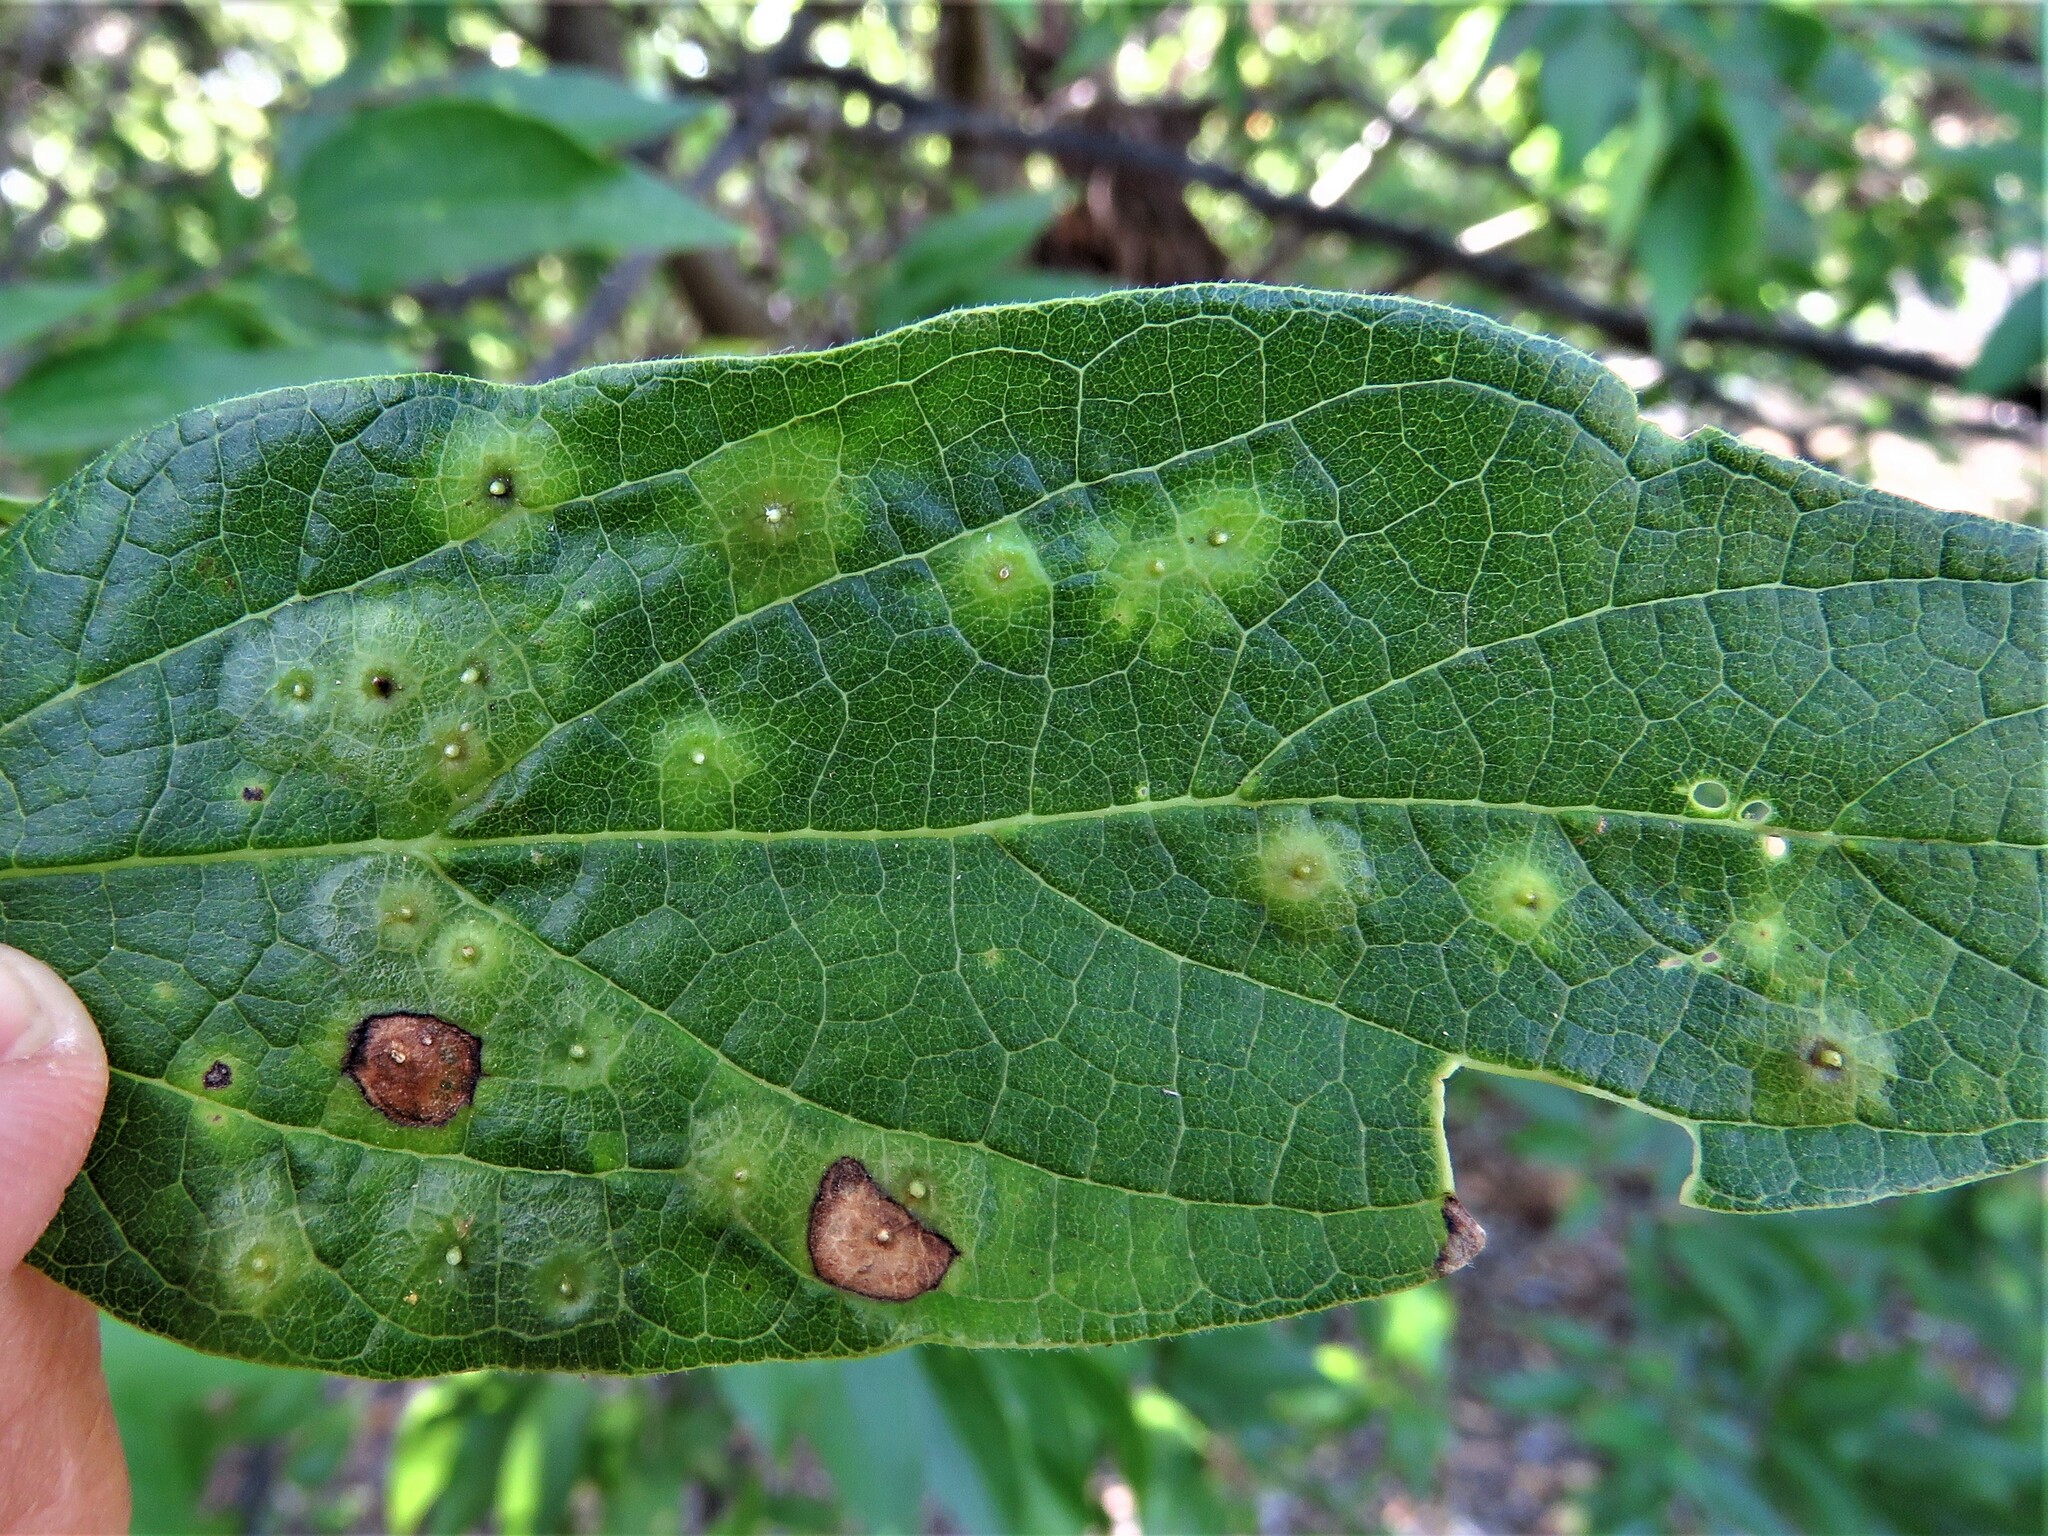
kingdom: Animalia
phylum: Arthropoda
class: Insecta
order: Hemiptera
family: Aphalaridae
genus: Pachypsylla
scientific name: Pachypsylla celtidisasterisca
